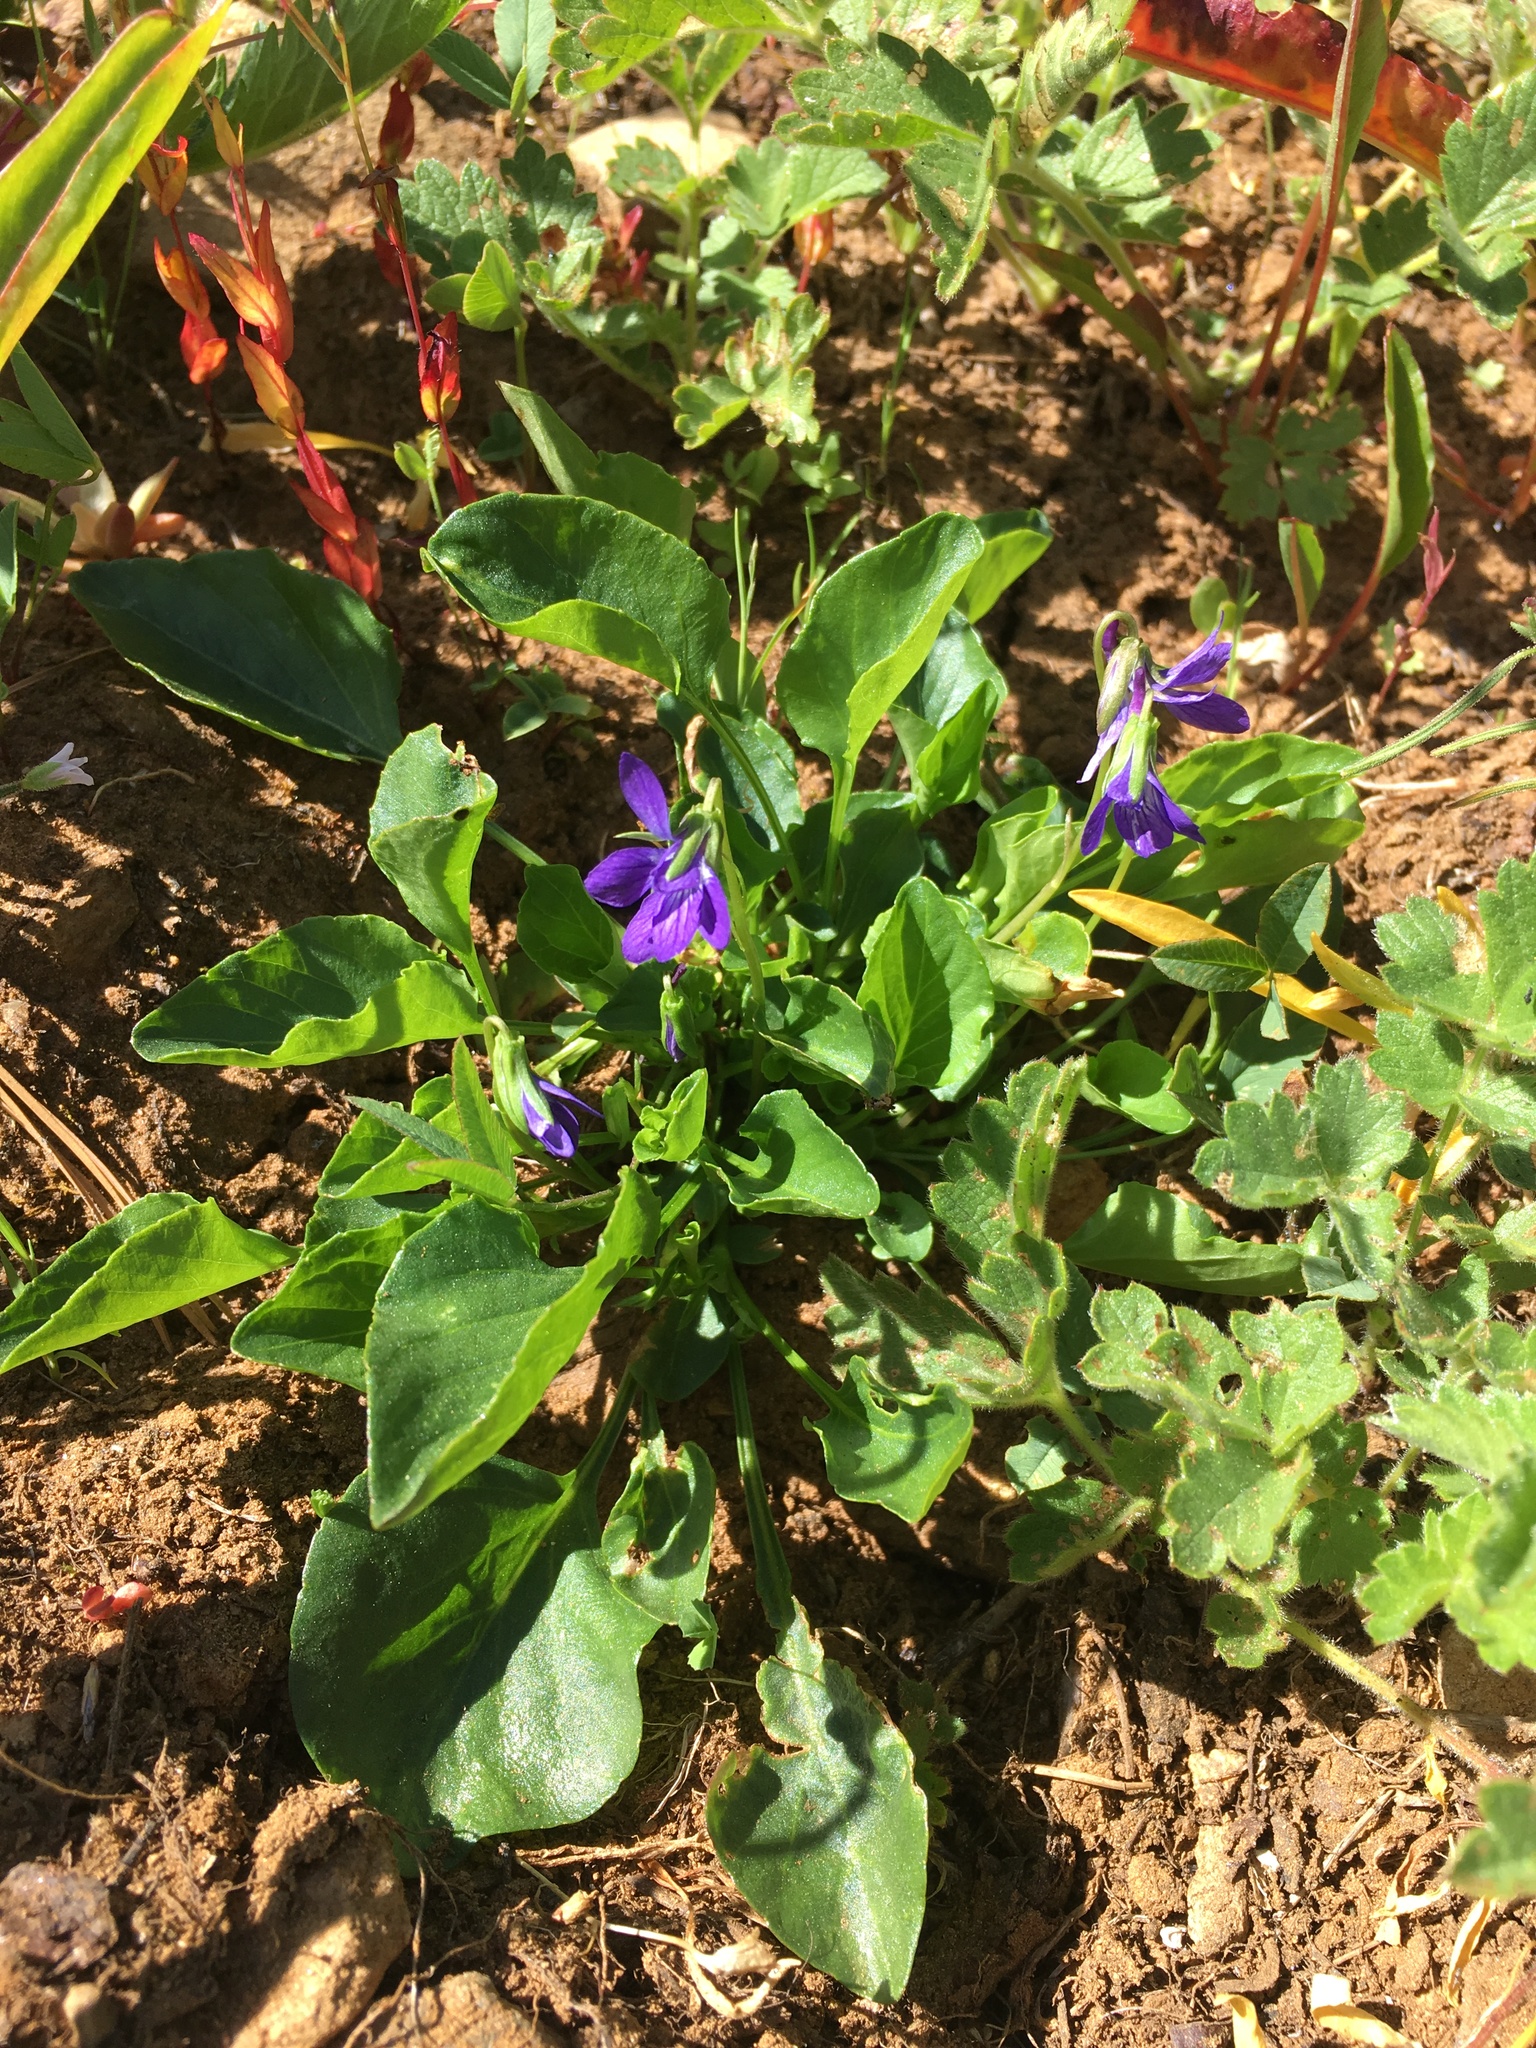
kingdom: Plantae
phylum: Tracheophyta
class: Magnoliopsida
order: Malpighiales
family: Violaceae
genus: Viola
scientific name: Viola adunca
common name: Sand violet
